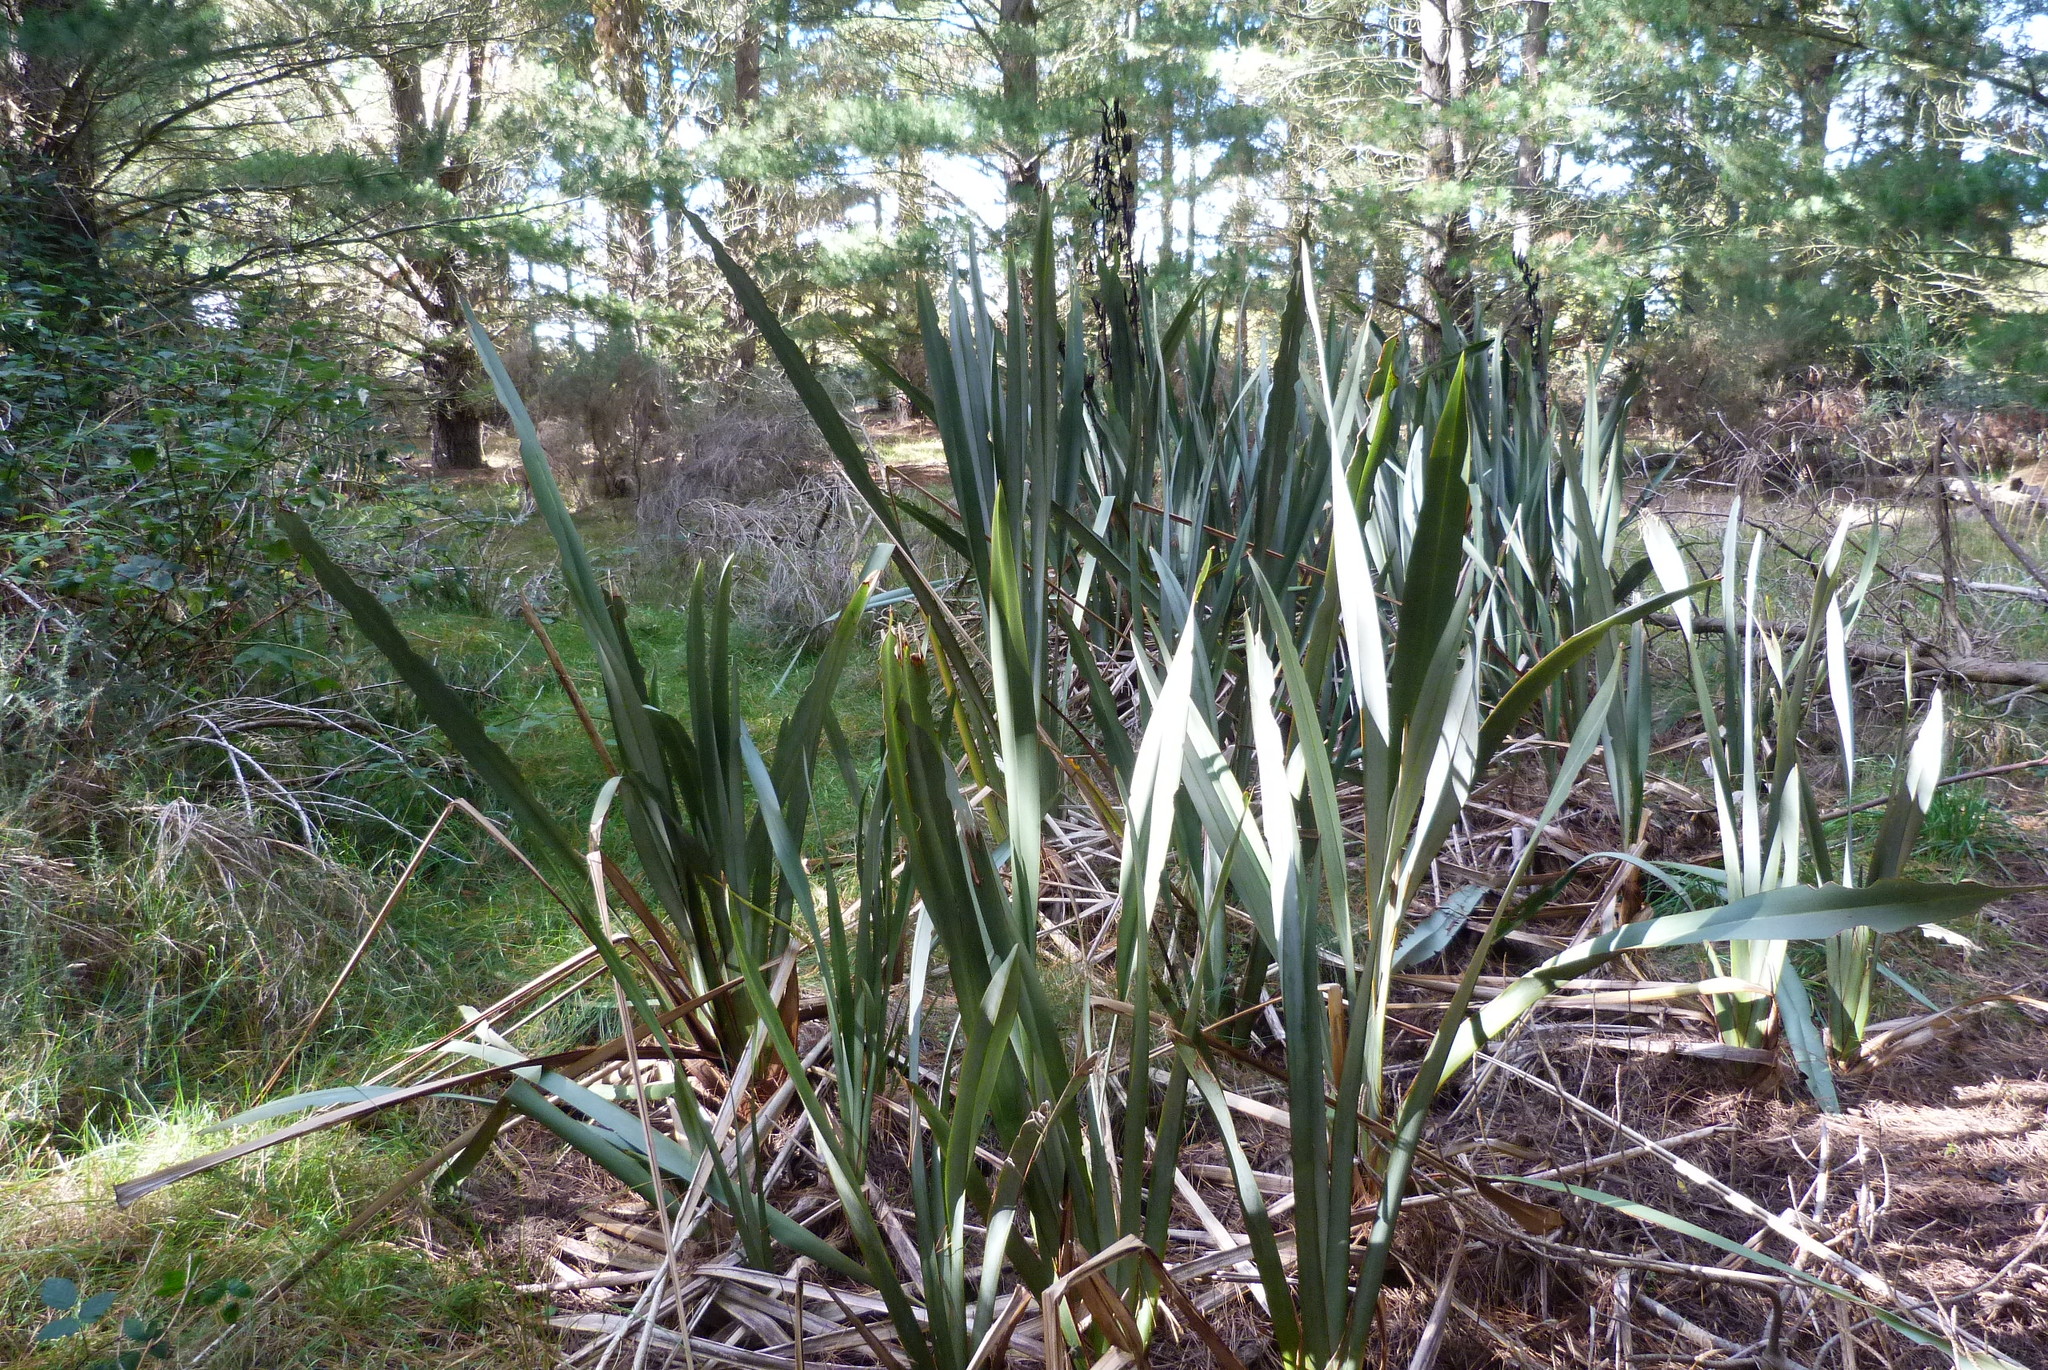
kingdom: Plantae
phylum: Tracheophyta
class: Liliopsida
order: Asparagales
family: Asphodelaceae
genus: Phormium
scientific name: Phormium tenax
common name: New zealand flax
